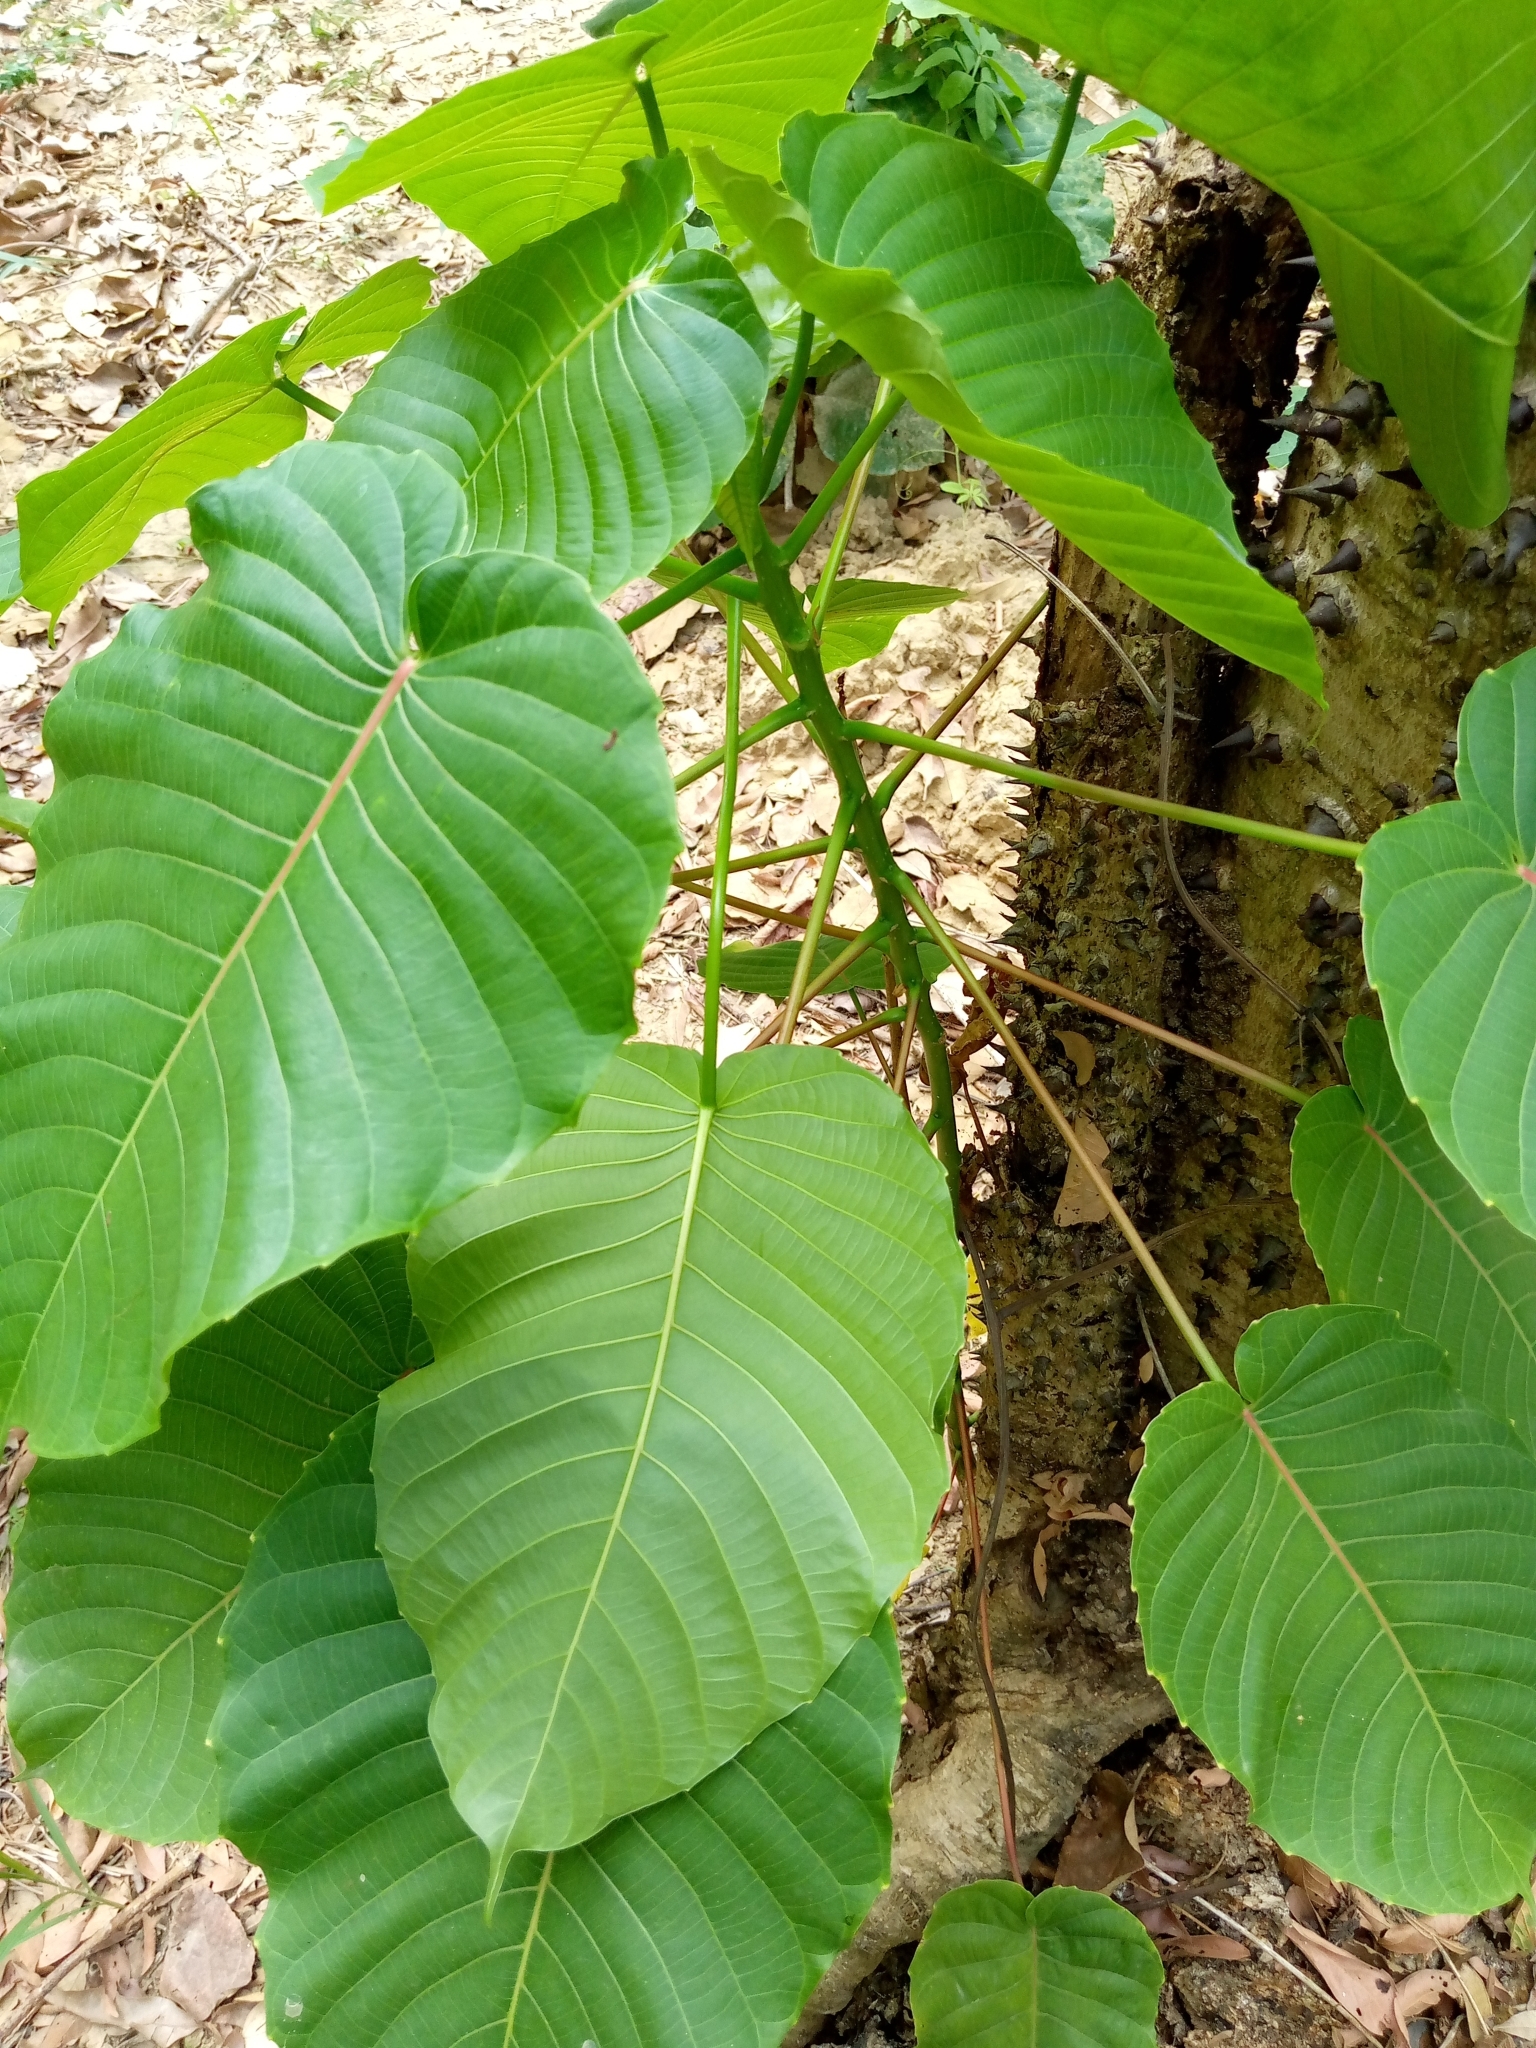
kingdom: Plantae
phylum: Tracheophyta
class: Magnoliopsida
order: Malpighiales
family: Euphorbiaceae
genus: Hura
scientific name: Hura crepitans
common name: Sandboxtree
